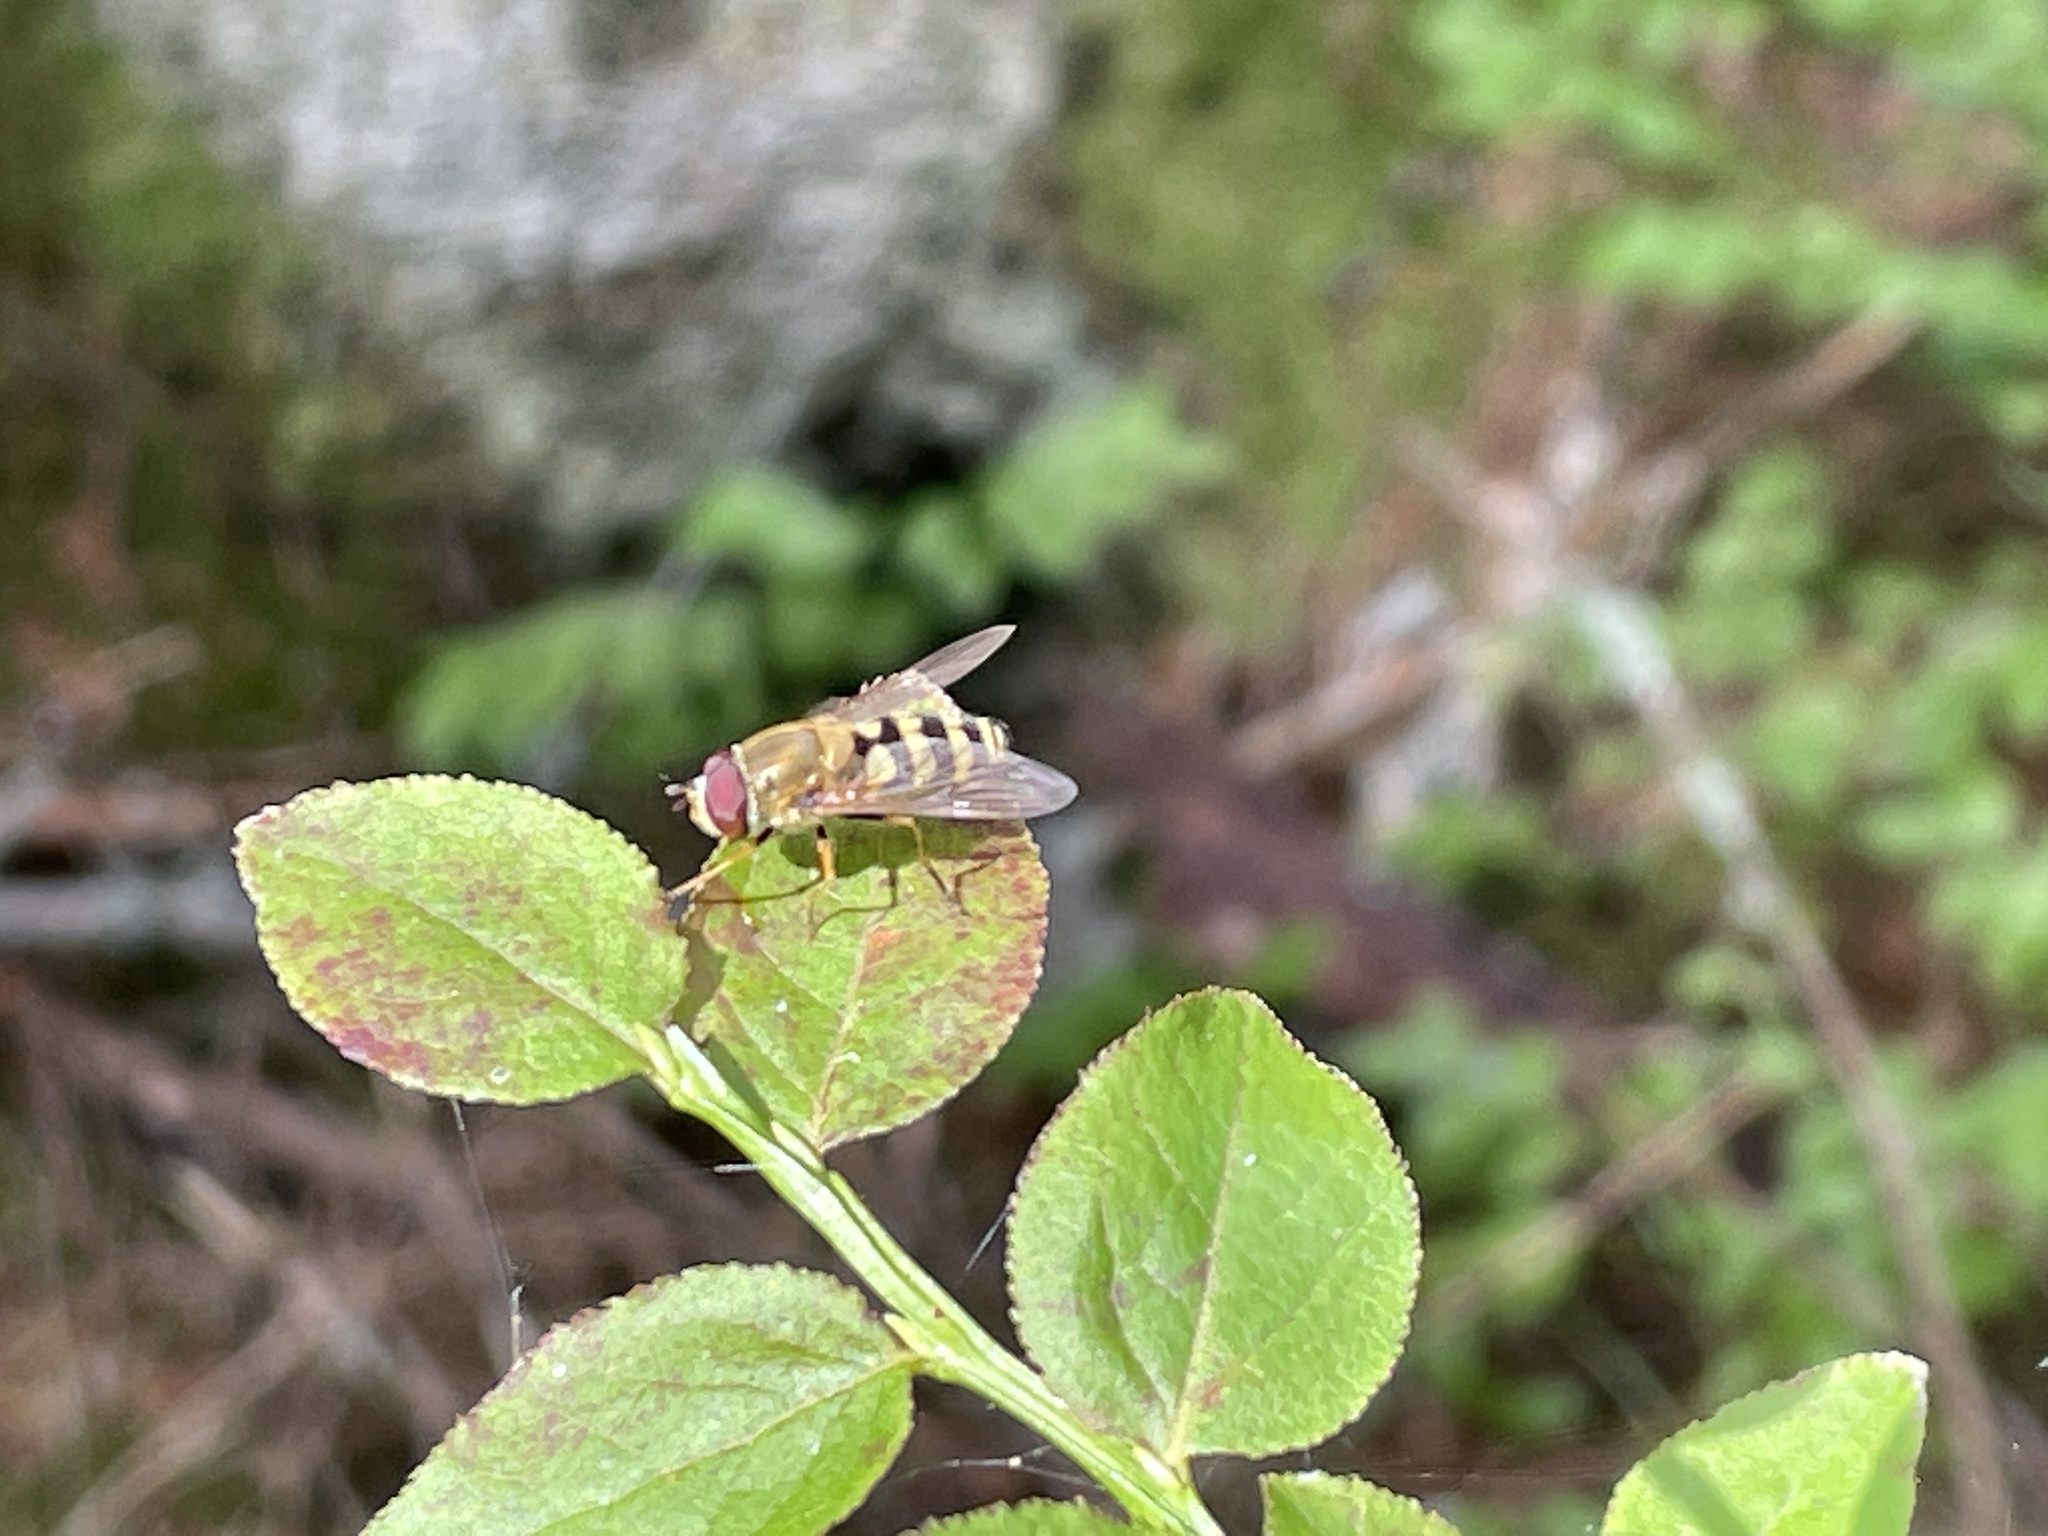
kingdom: Animalia
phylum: Arthropoda
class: Insecta
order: Diptera
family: Syrphidae
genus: Syrphus
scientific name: Syrphus
